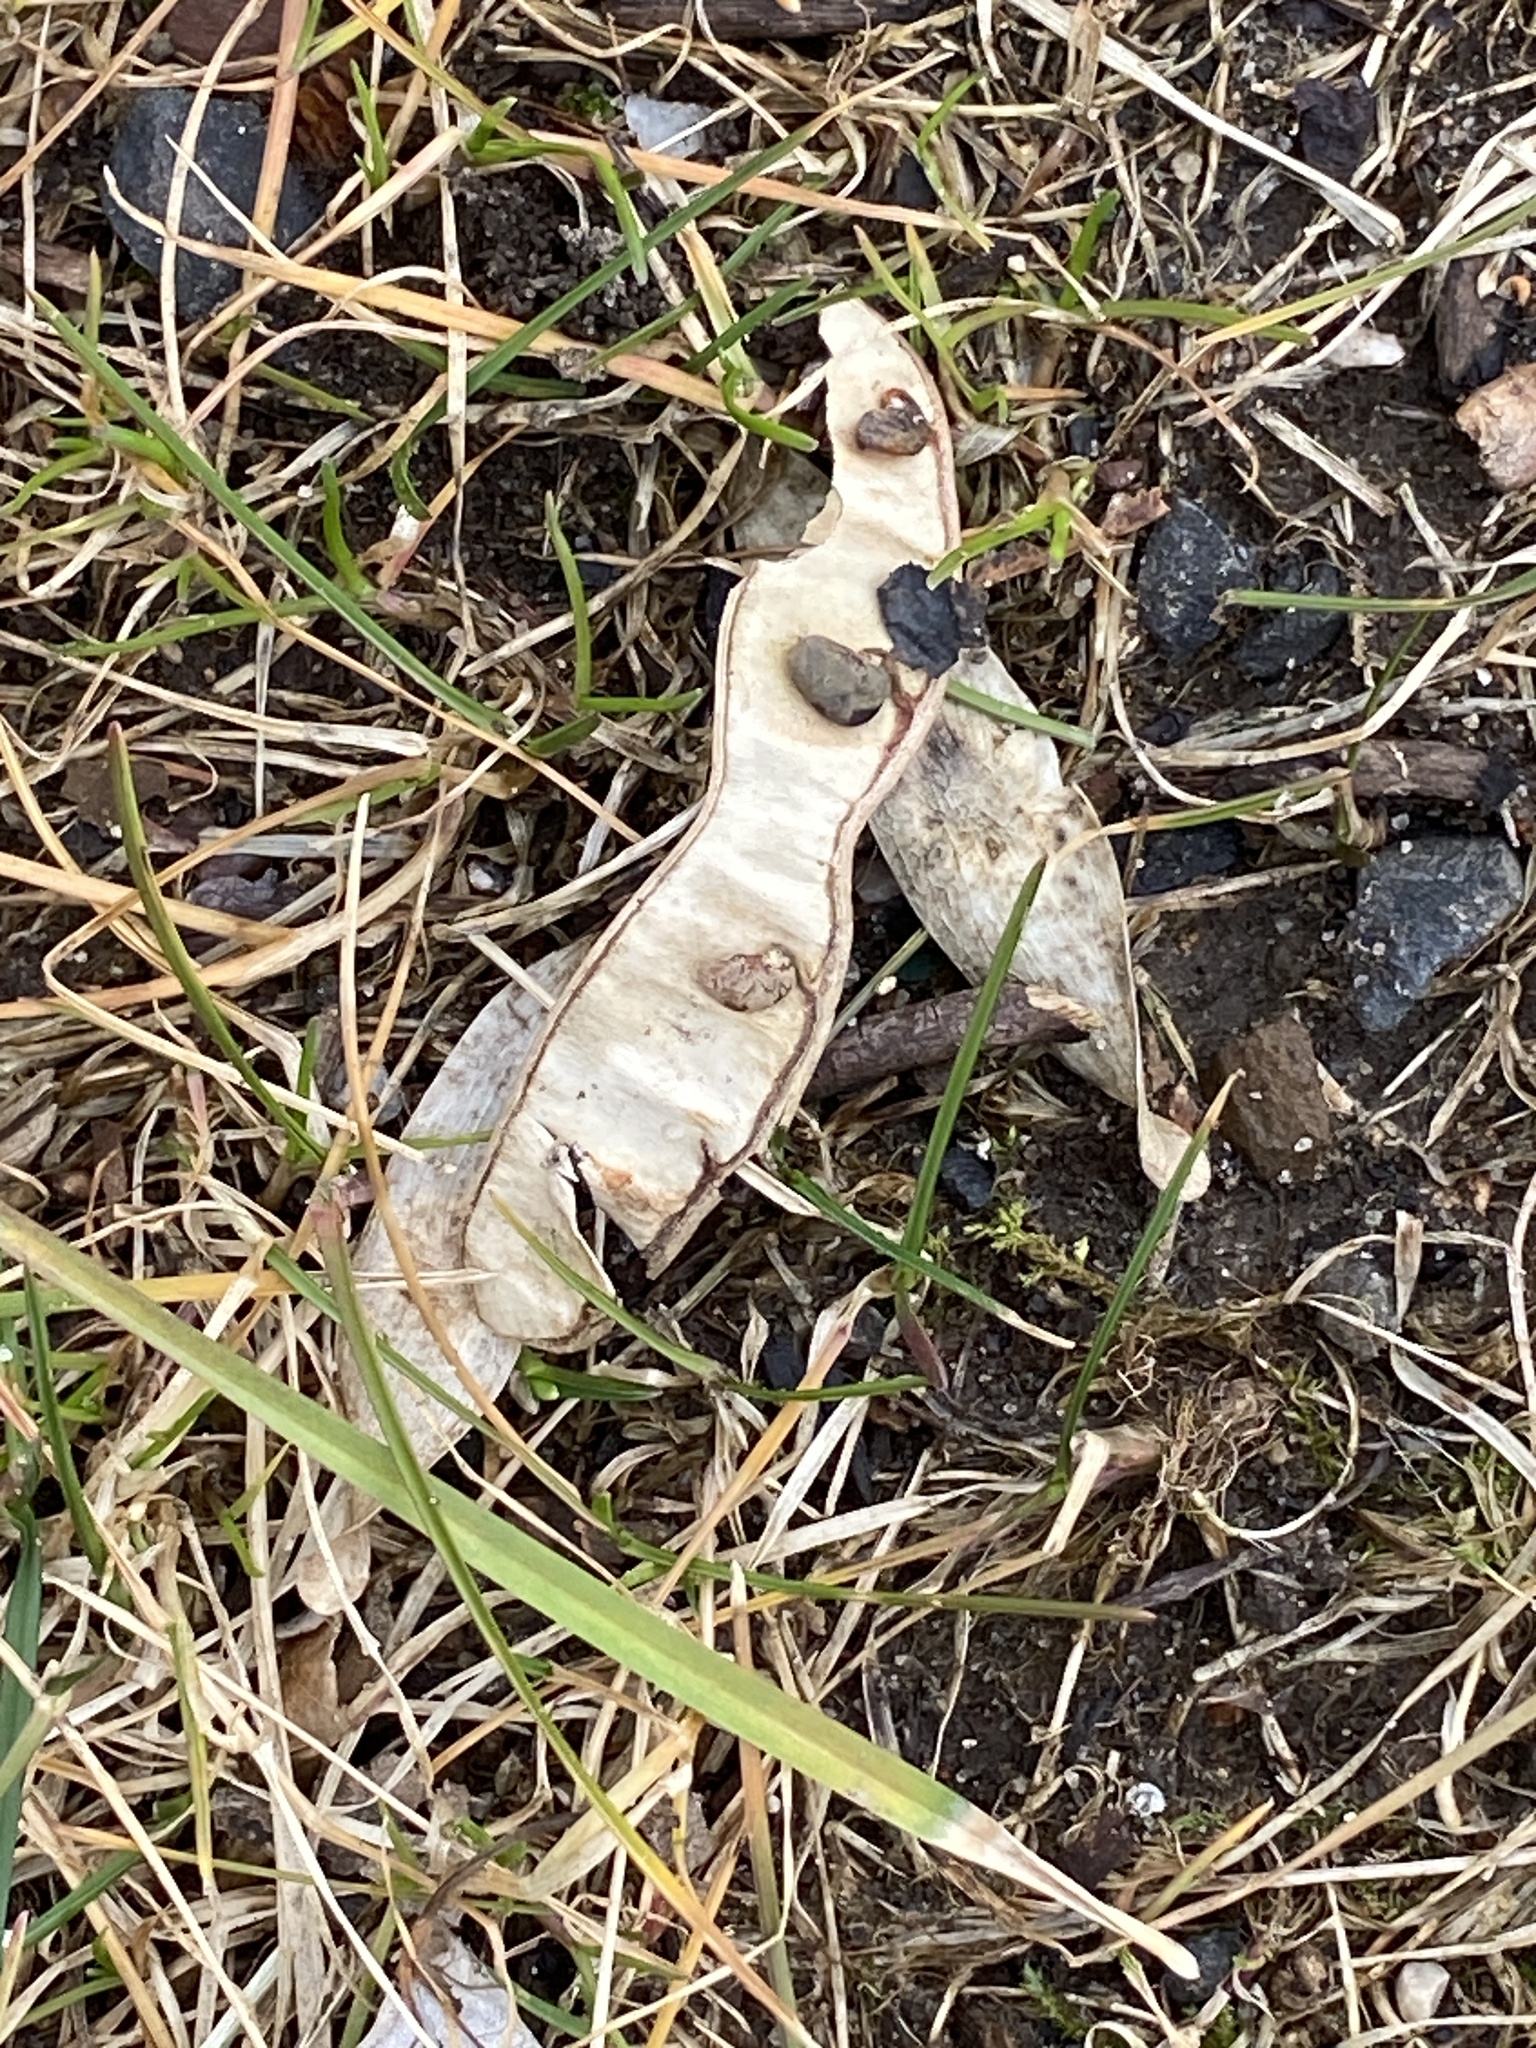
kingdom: Plantae
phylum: Tracheophyta
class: Magnoliopsida
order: Fabales
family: Fabaceae
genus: Robinia
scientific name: Robinia pseudoacacia
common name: Black locust
